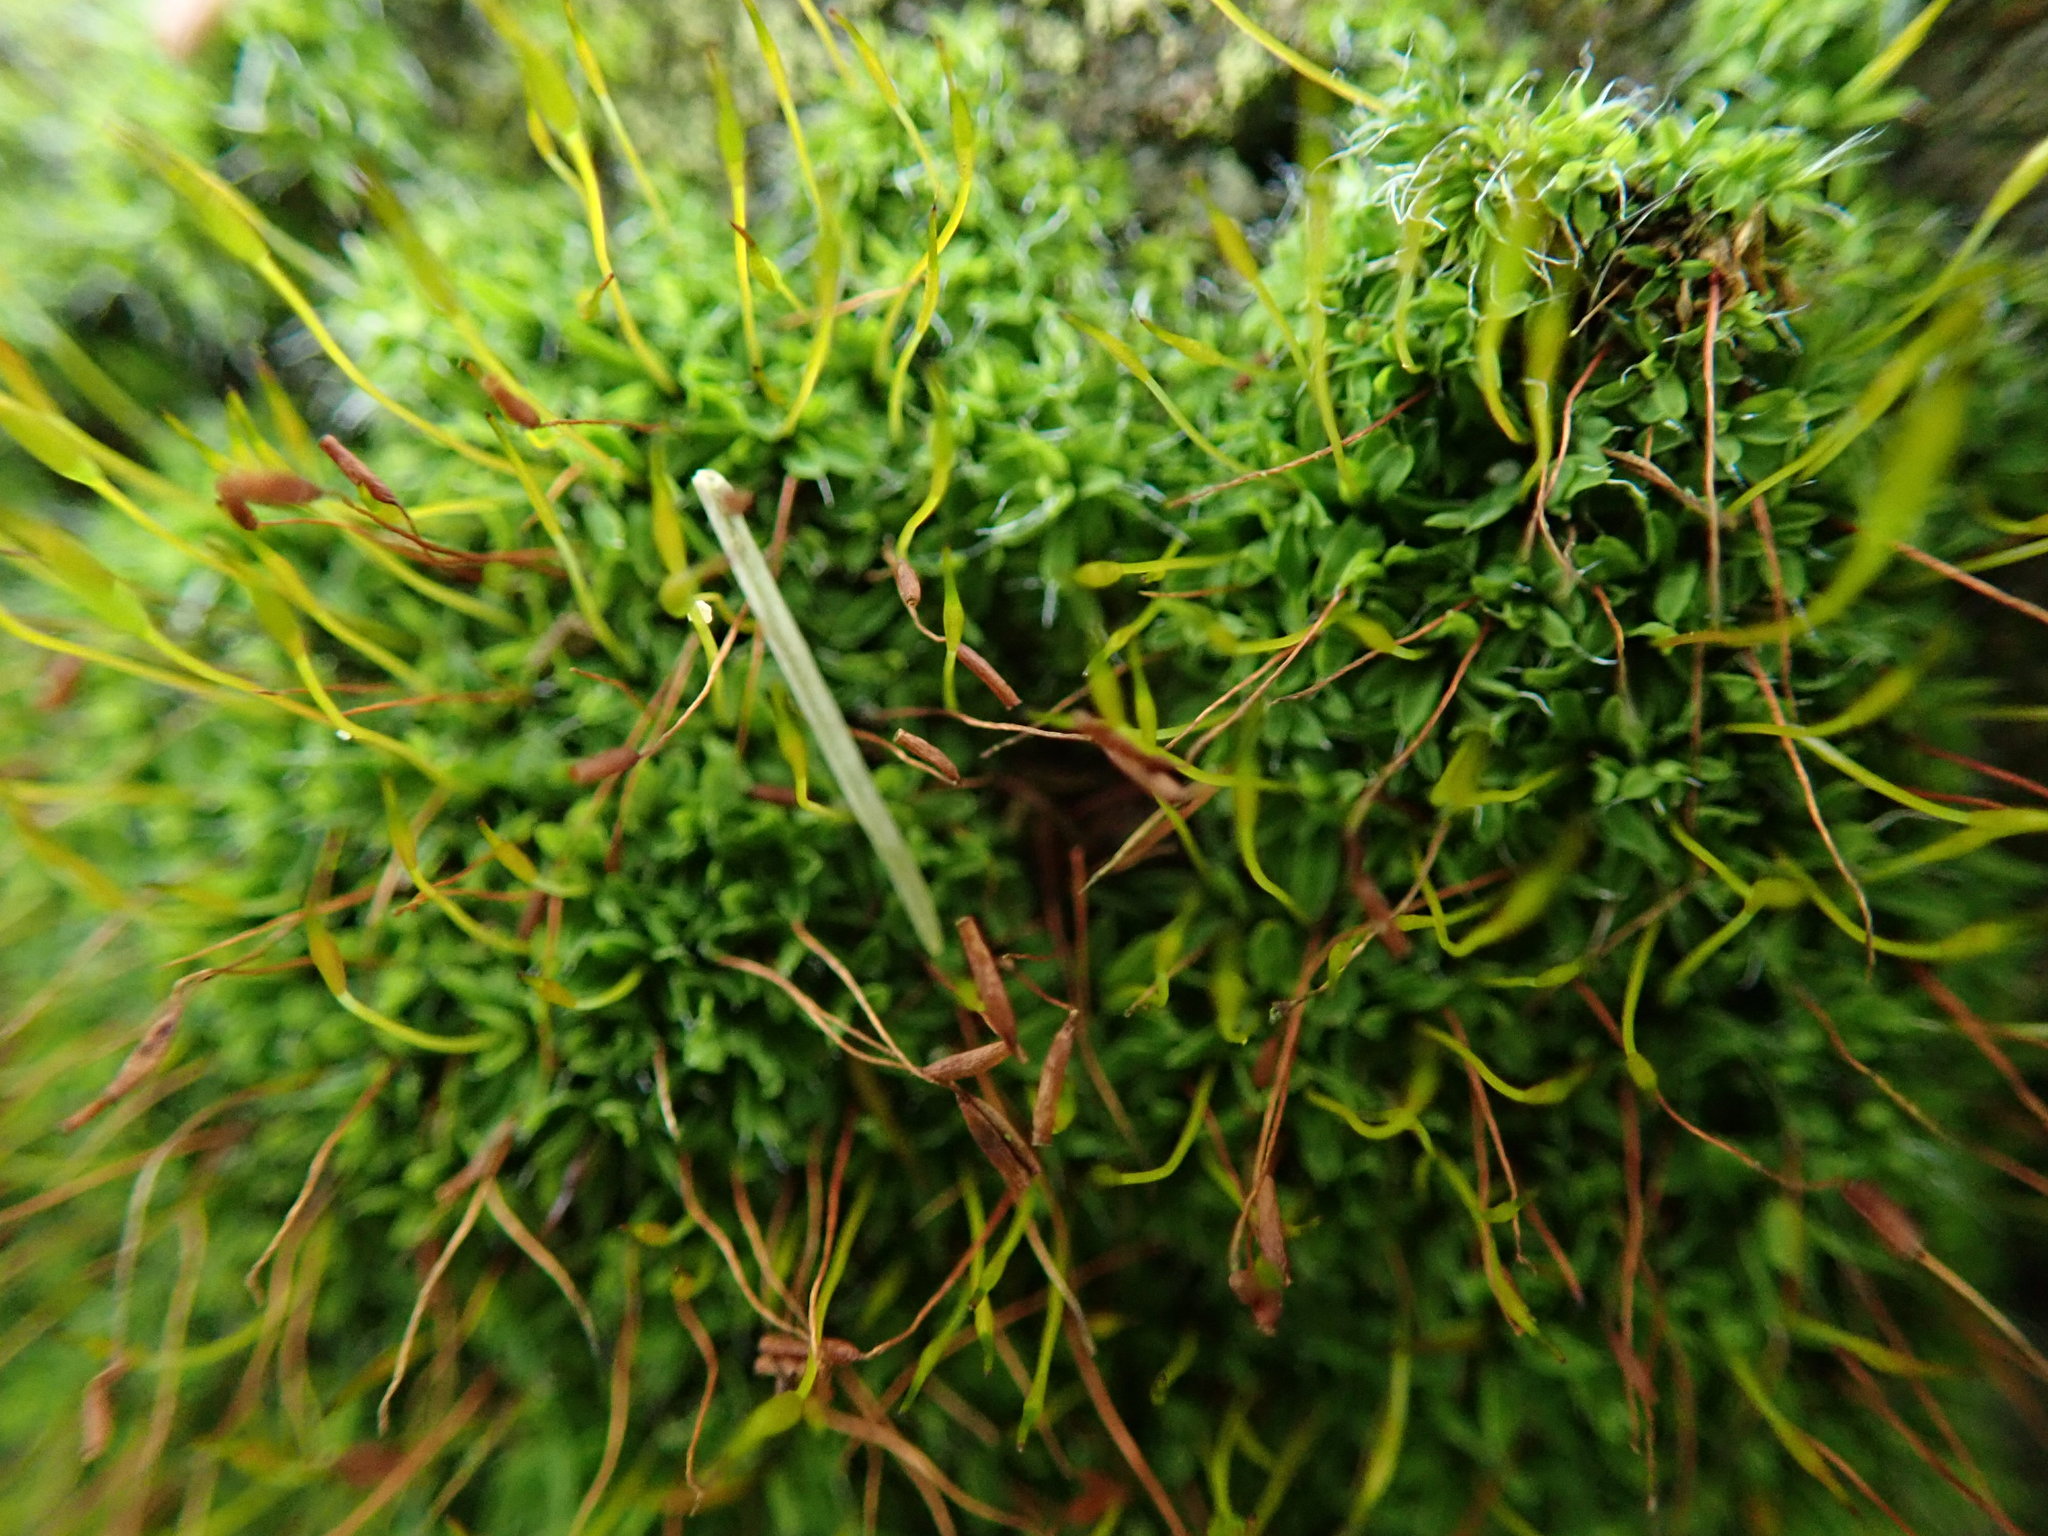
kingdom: Plantae
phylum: Bryophyta
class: Bryopsida
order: Pottiales
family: Pottiaceae
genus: Tortula
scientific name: Tortula muralis
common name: Wall screw-moss
